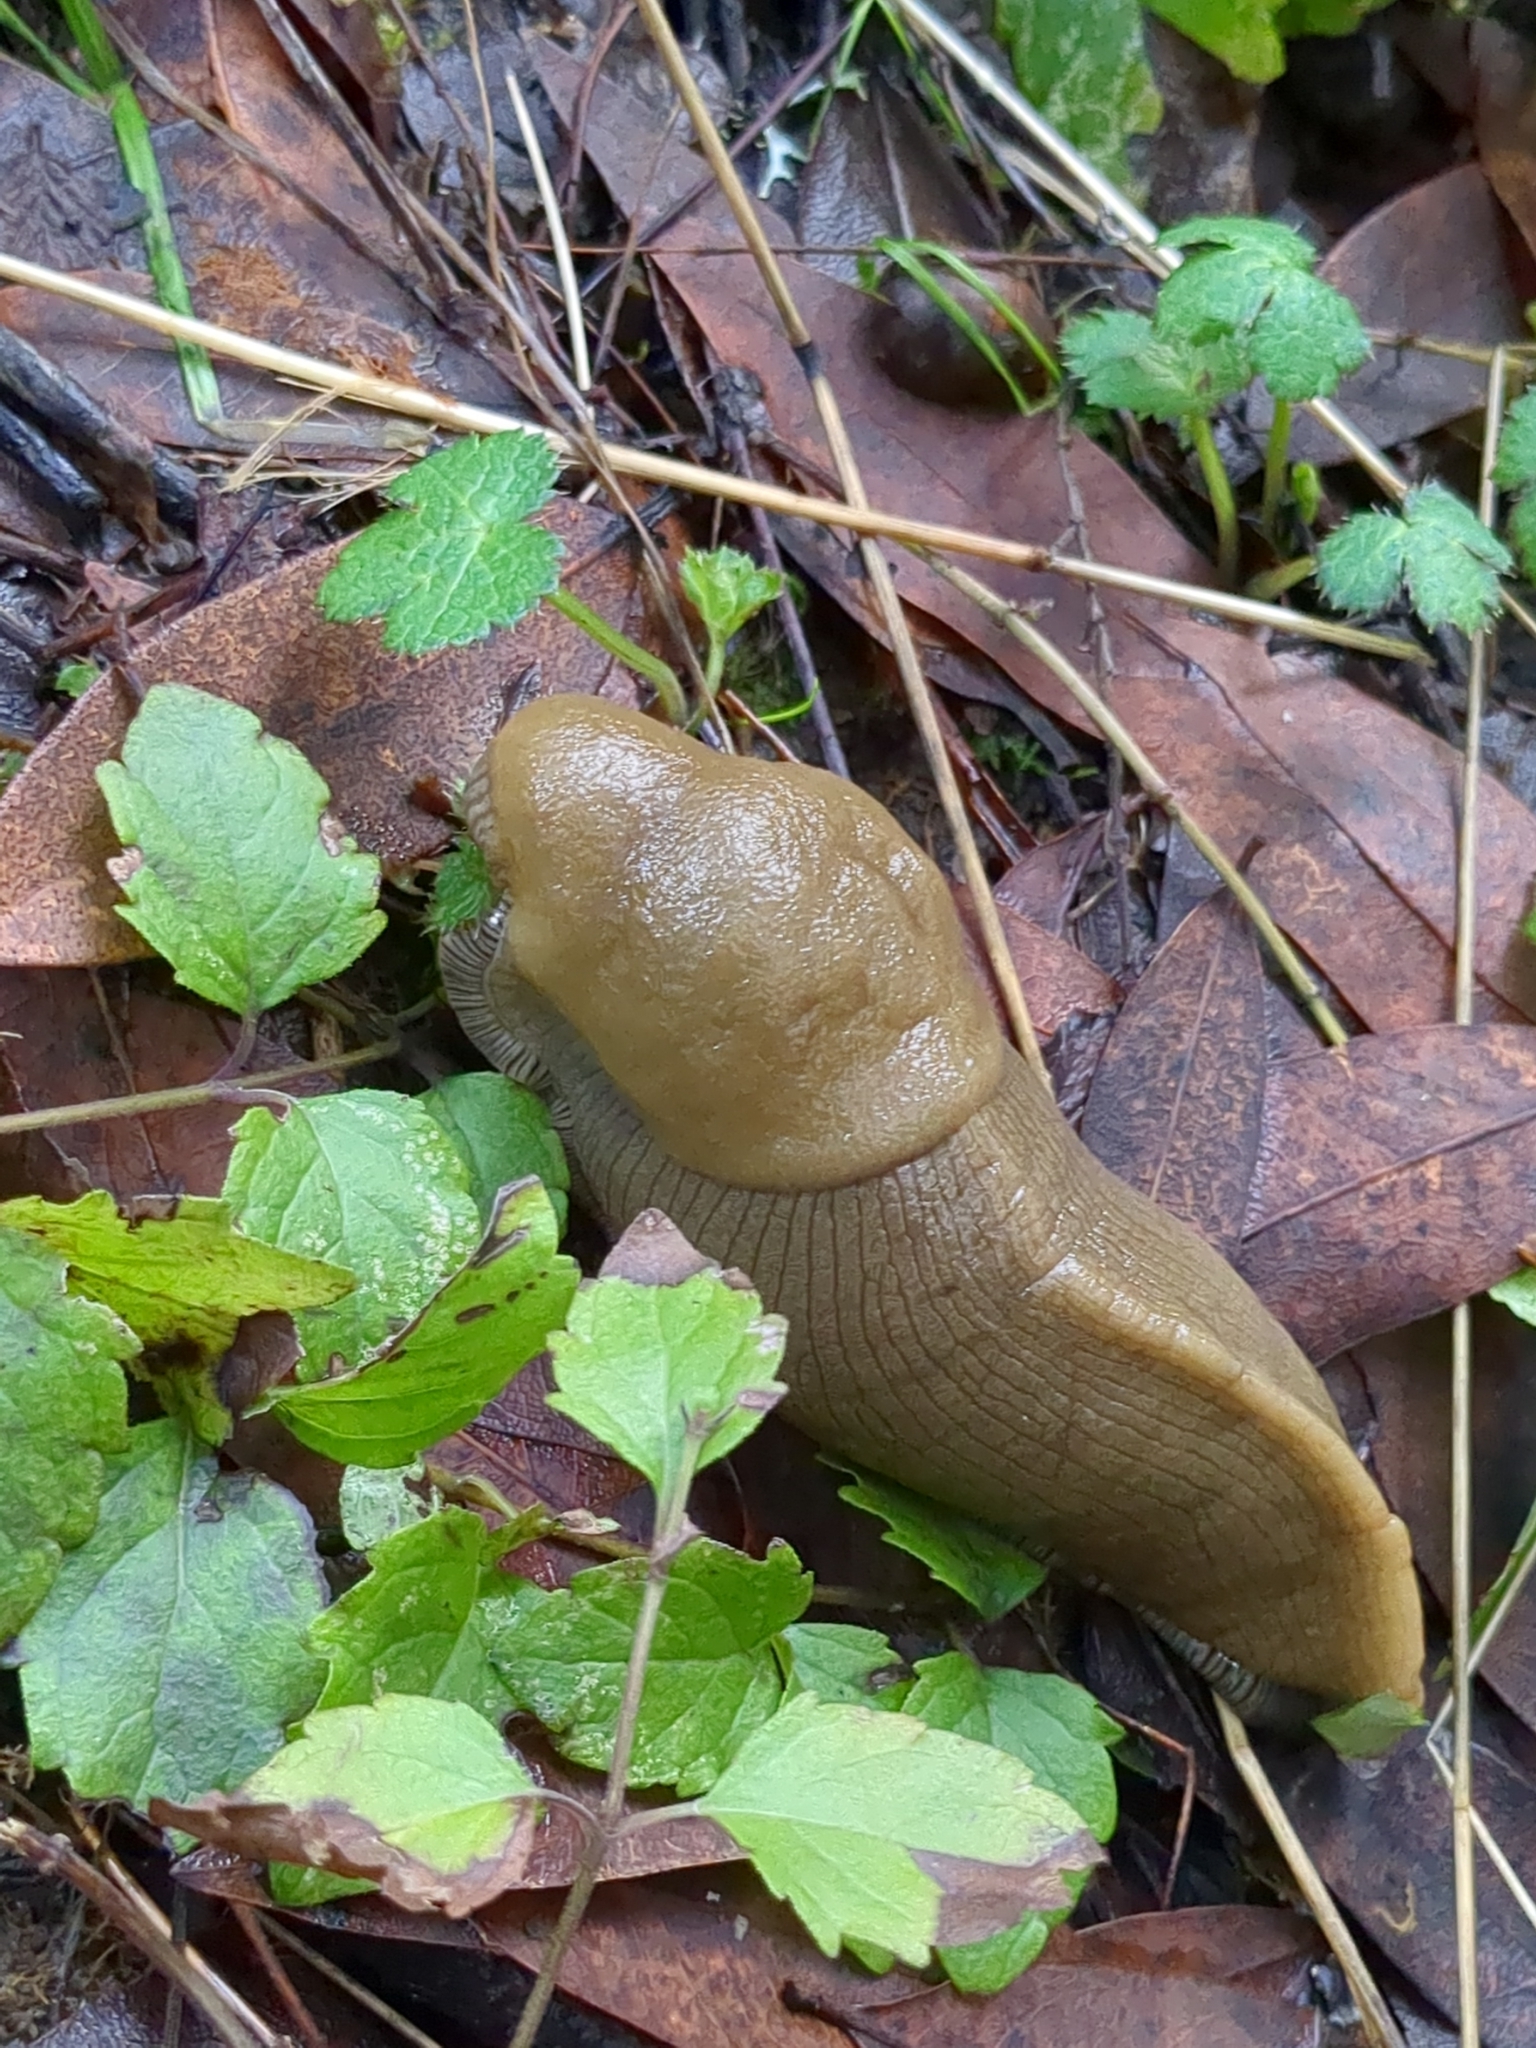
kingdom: Animalia
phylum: Mollusca
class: Gastropoda
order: Stylommatophora
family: Ariolimacidae
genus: Ariolimax
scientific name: Ariolimax buttoni
